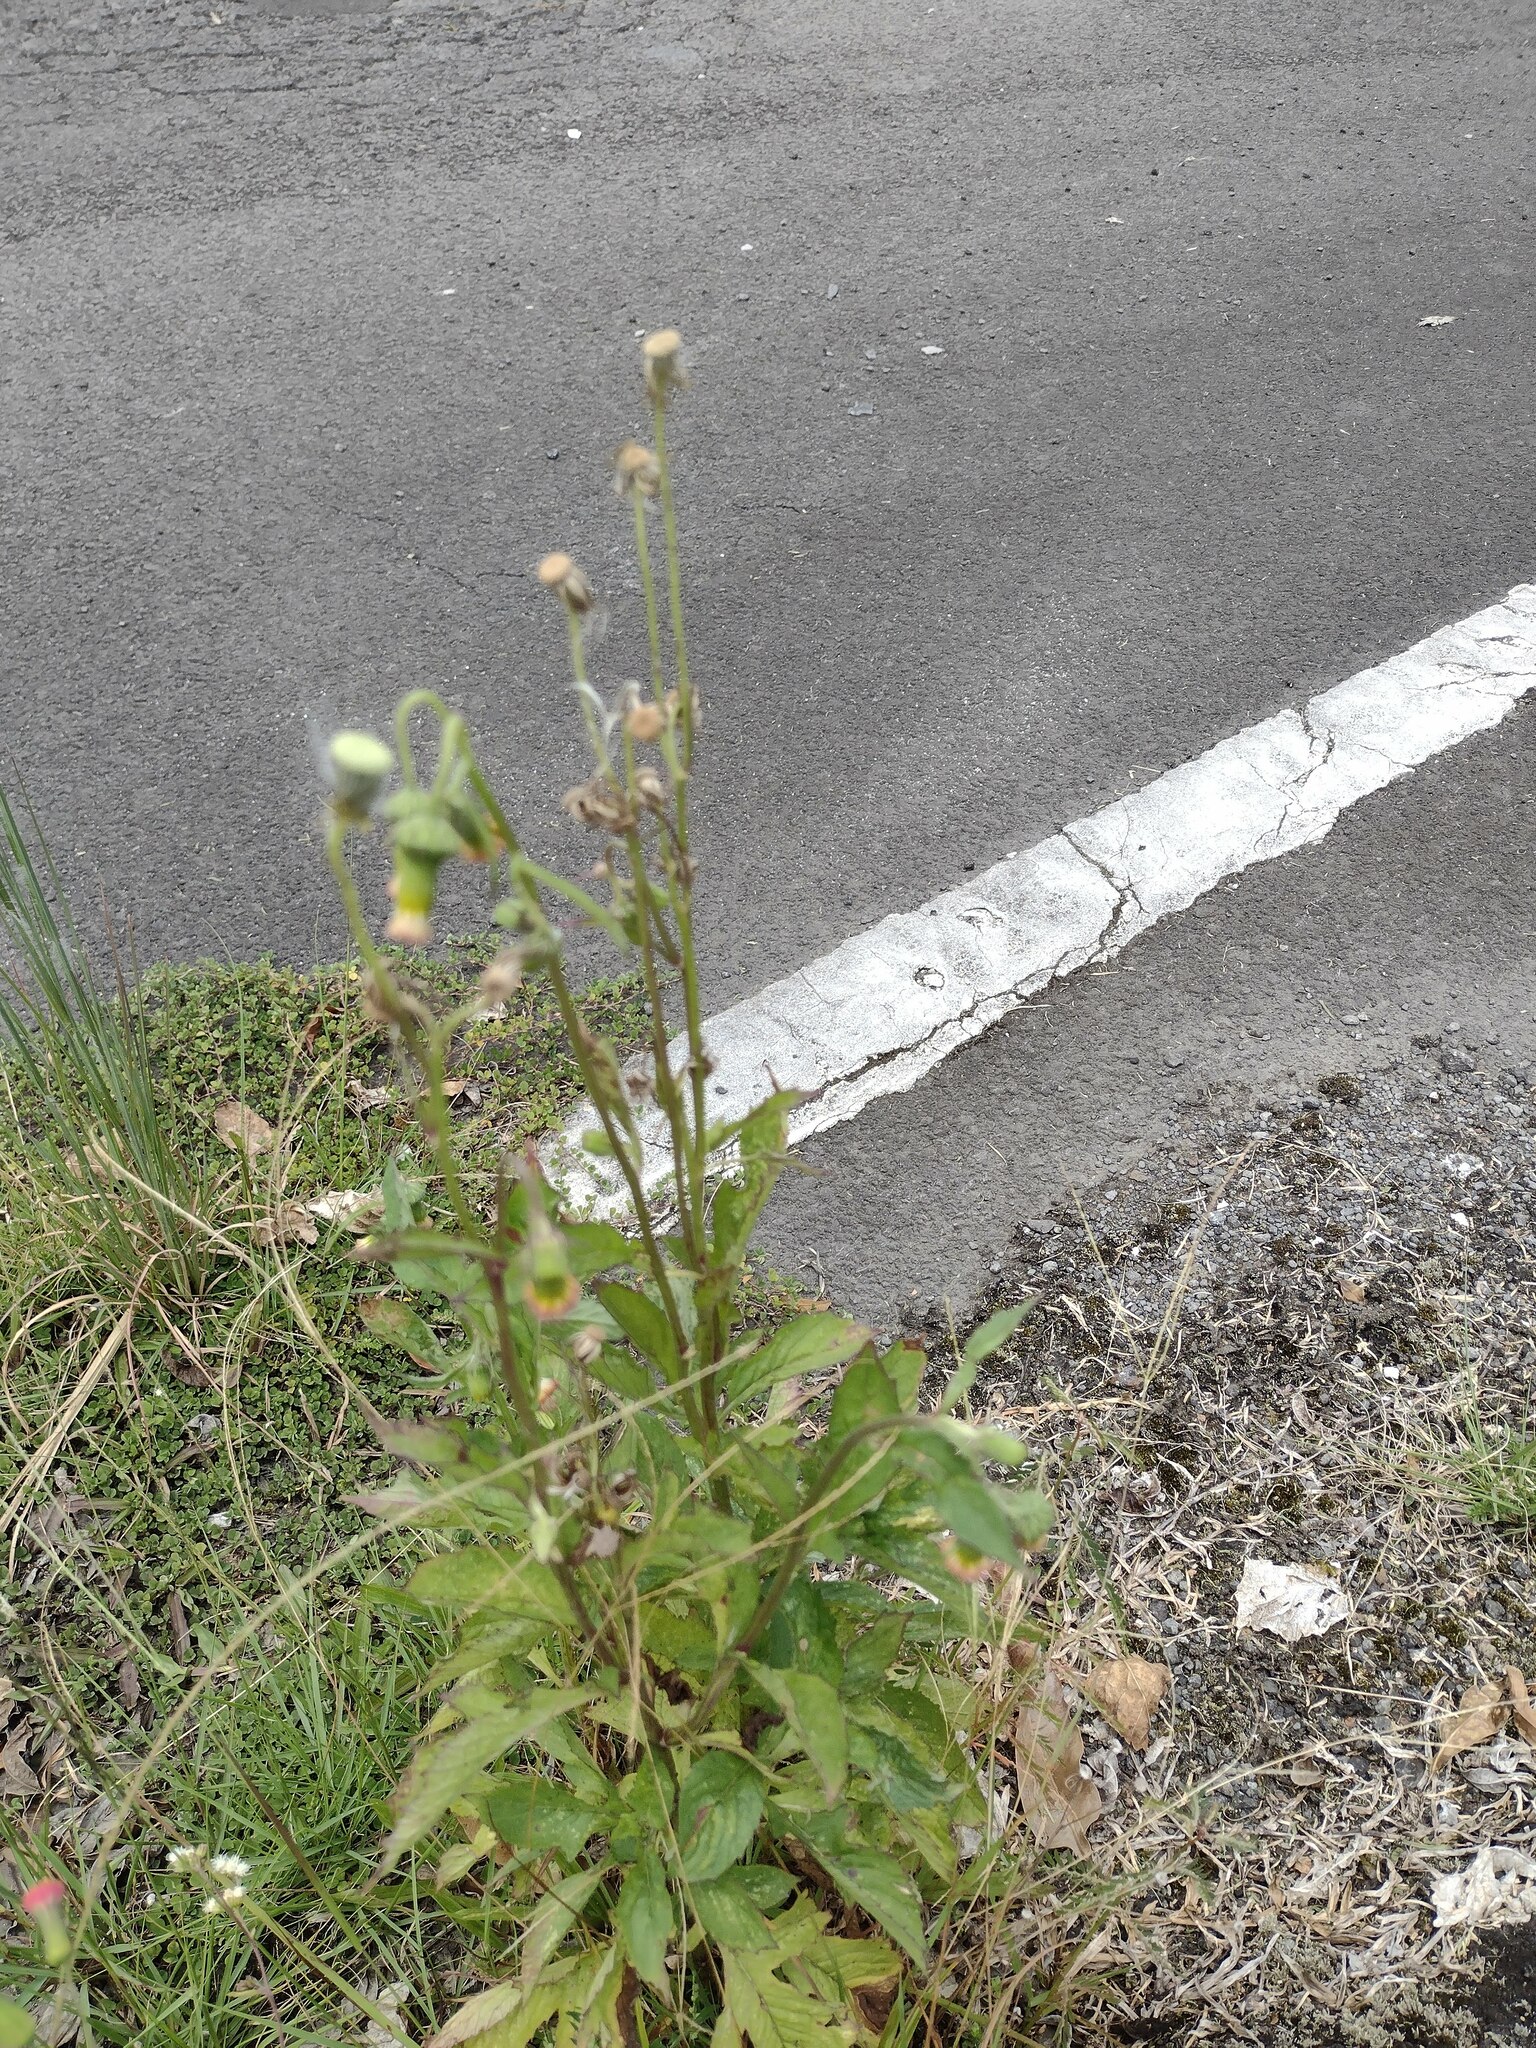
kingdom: Plantae
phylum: Tracheophyta
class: Magnoliopsida
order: Asterales
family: Asteraceae
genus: Crassocephalum
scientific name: Crassocephalum crepidioides
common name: Redflower ragleaf
